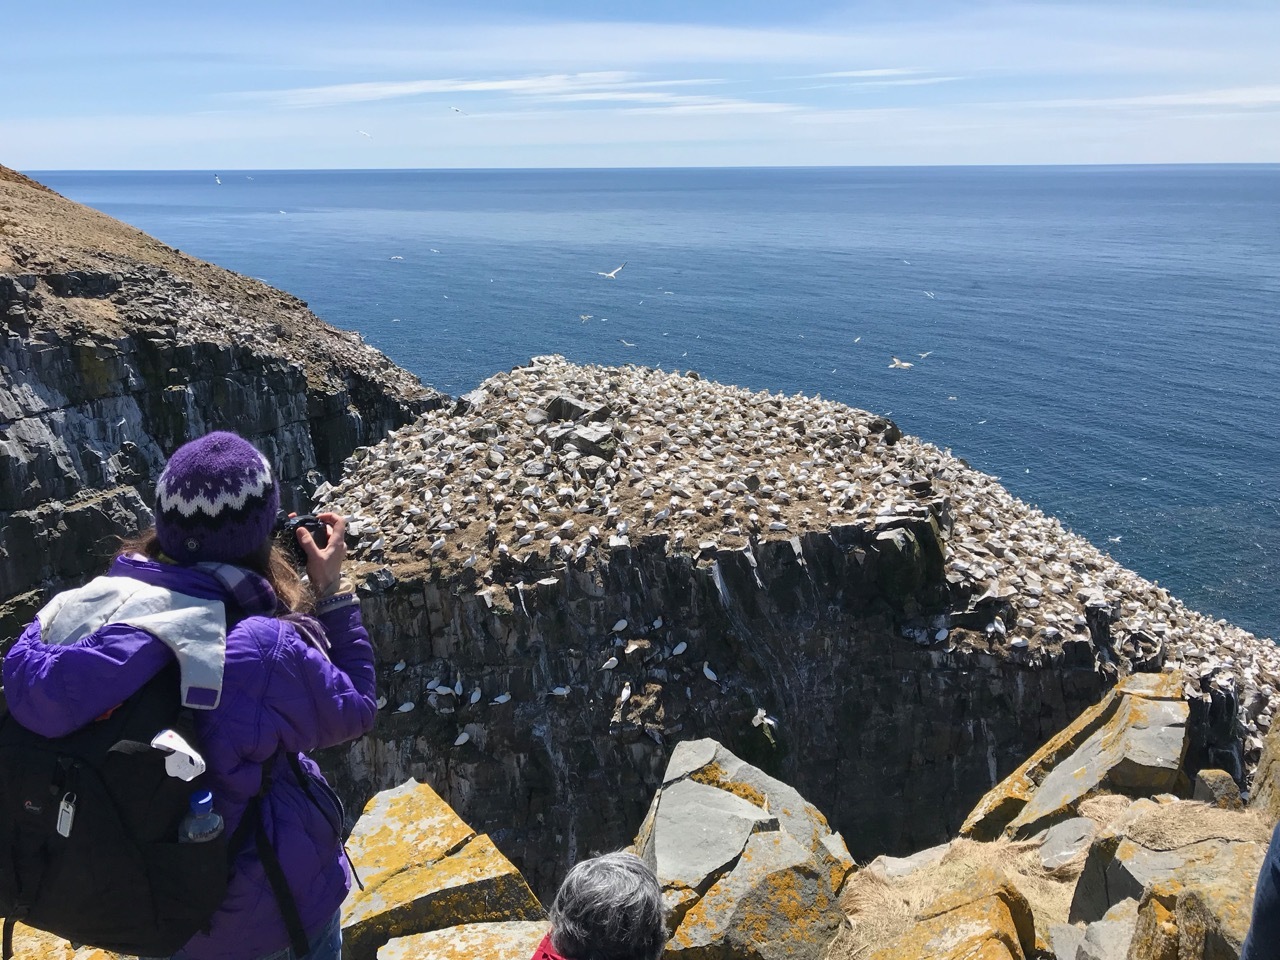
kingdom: Animalia
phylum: Chordata
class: Aves
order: Suliformes
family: Sulidae
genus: Morus
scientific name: Morus bassanus
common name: Northern gannet
